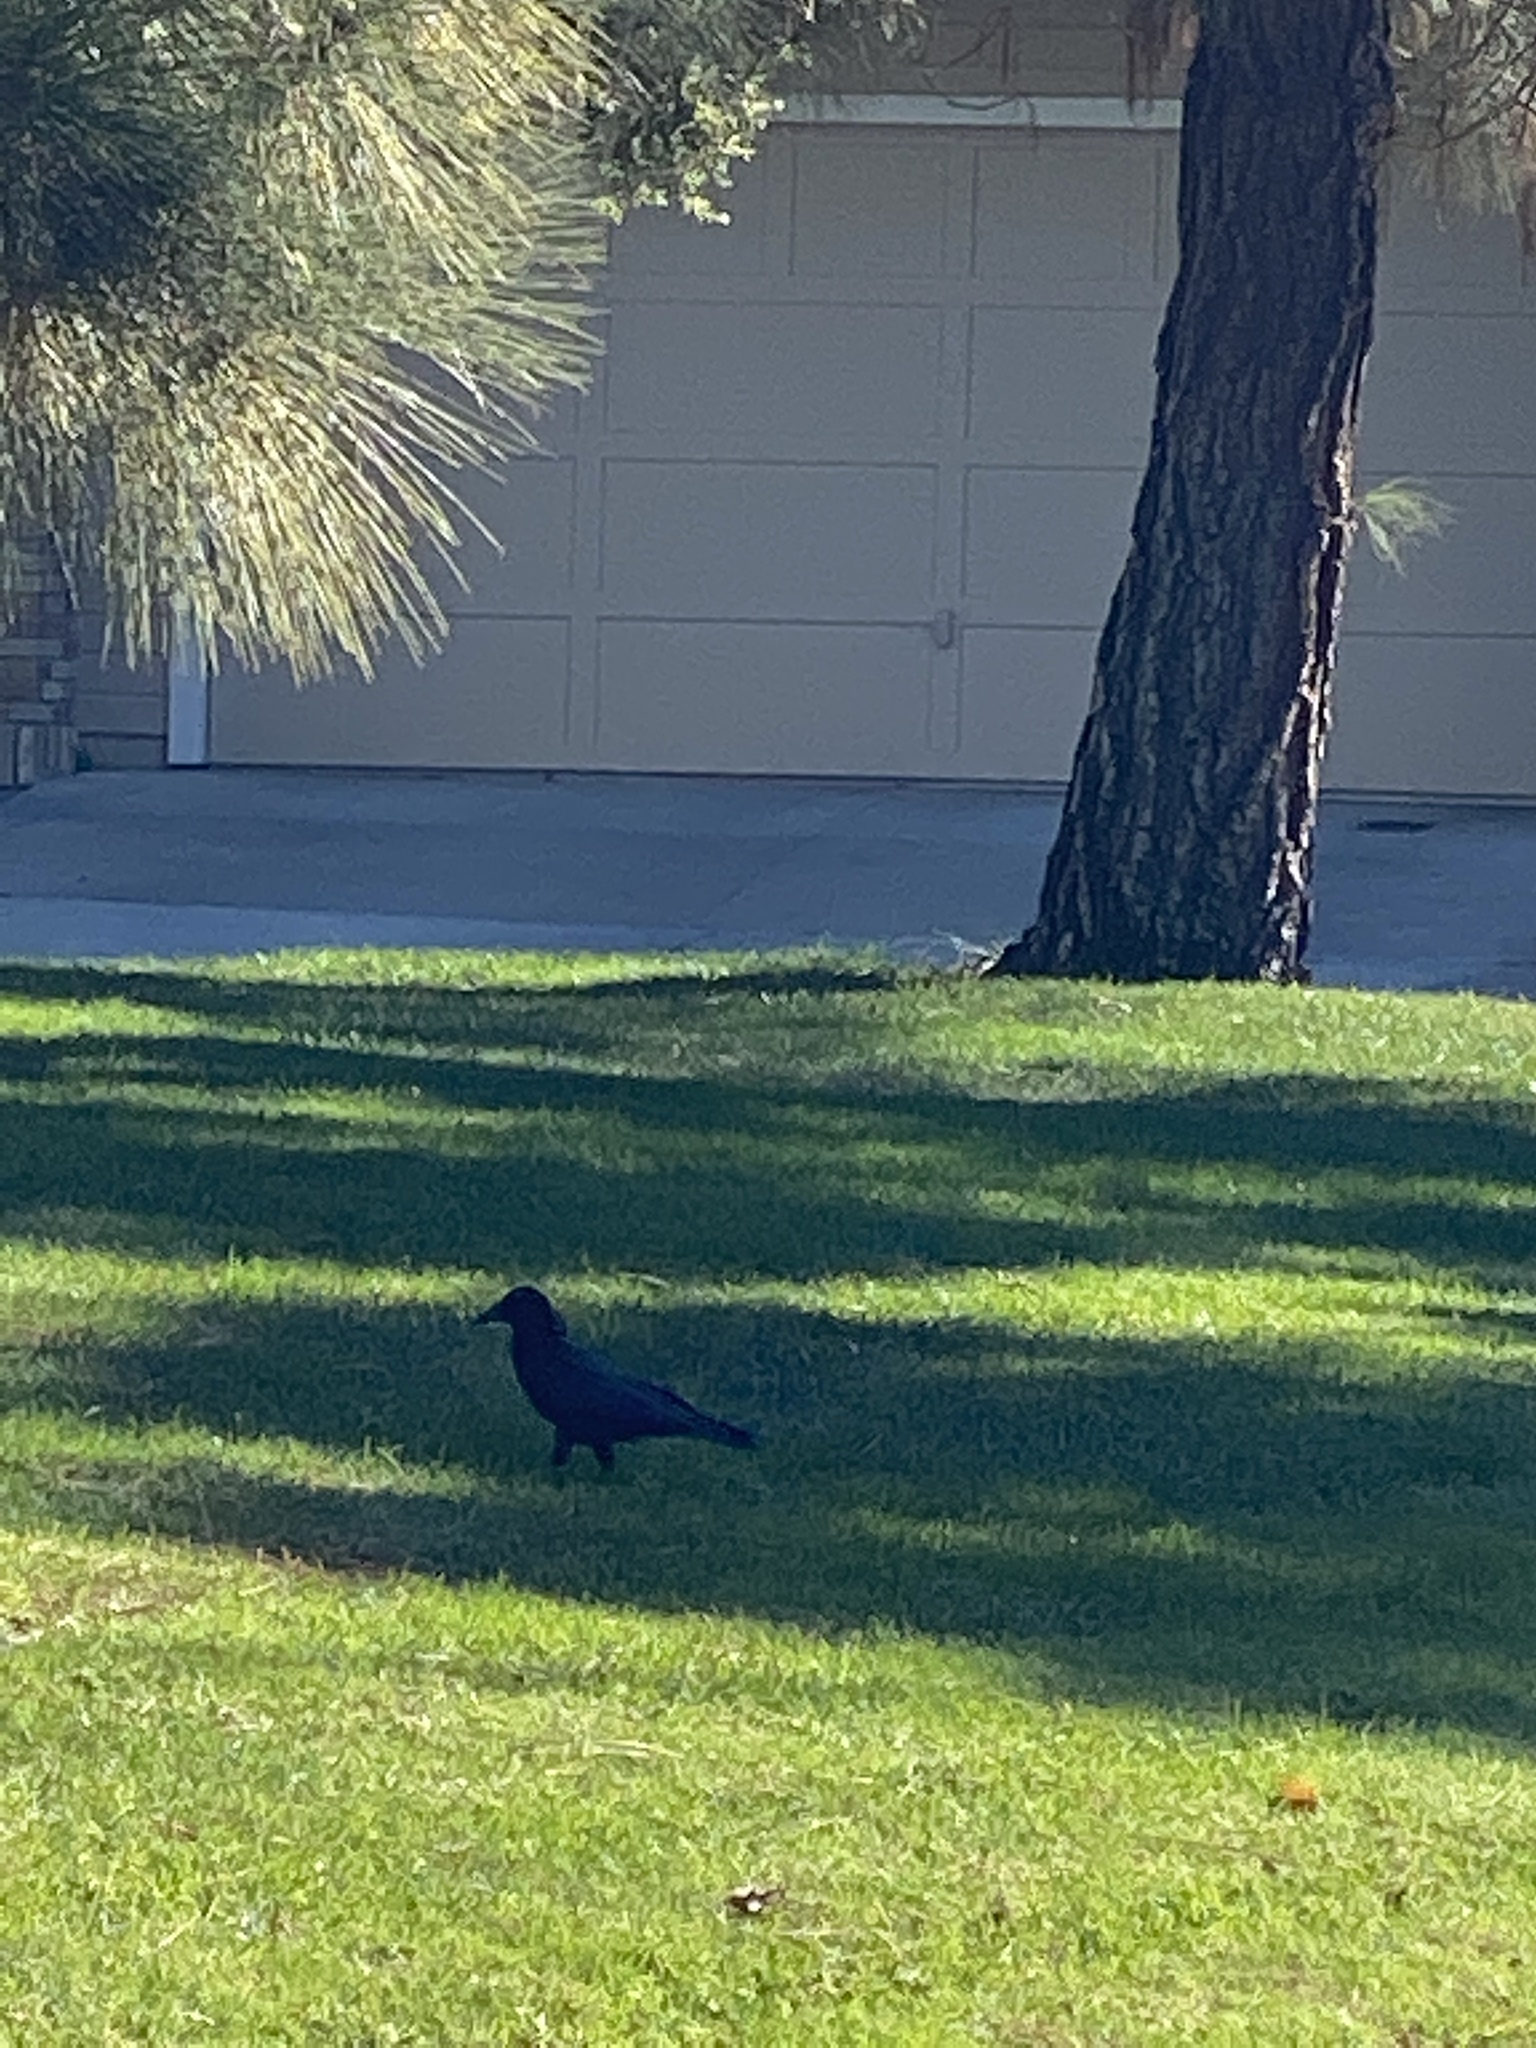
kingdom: Animalia
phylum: Chordata
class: Aves
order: Passeriformes
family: Corvidae
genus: Corvus
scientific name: Corvus brachyrhynchos
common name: American crow
